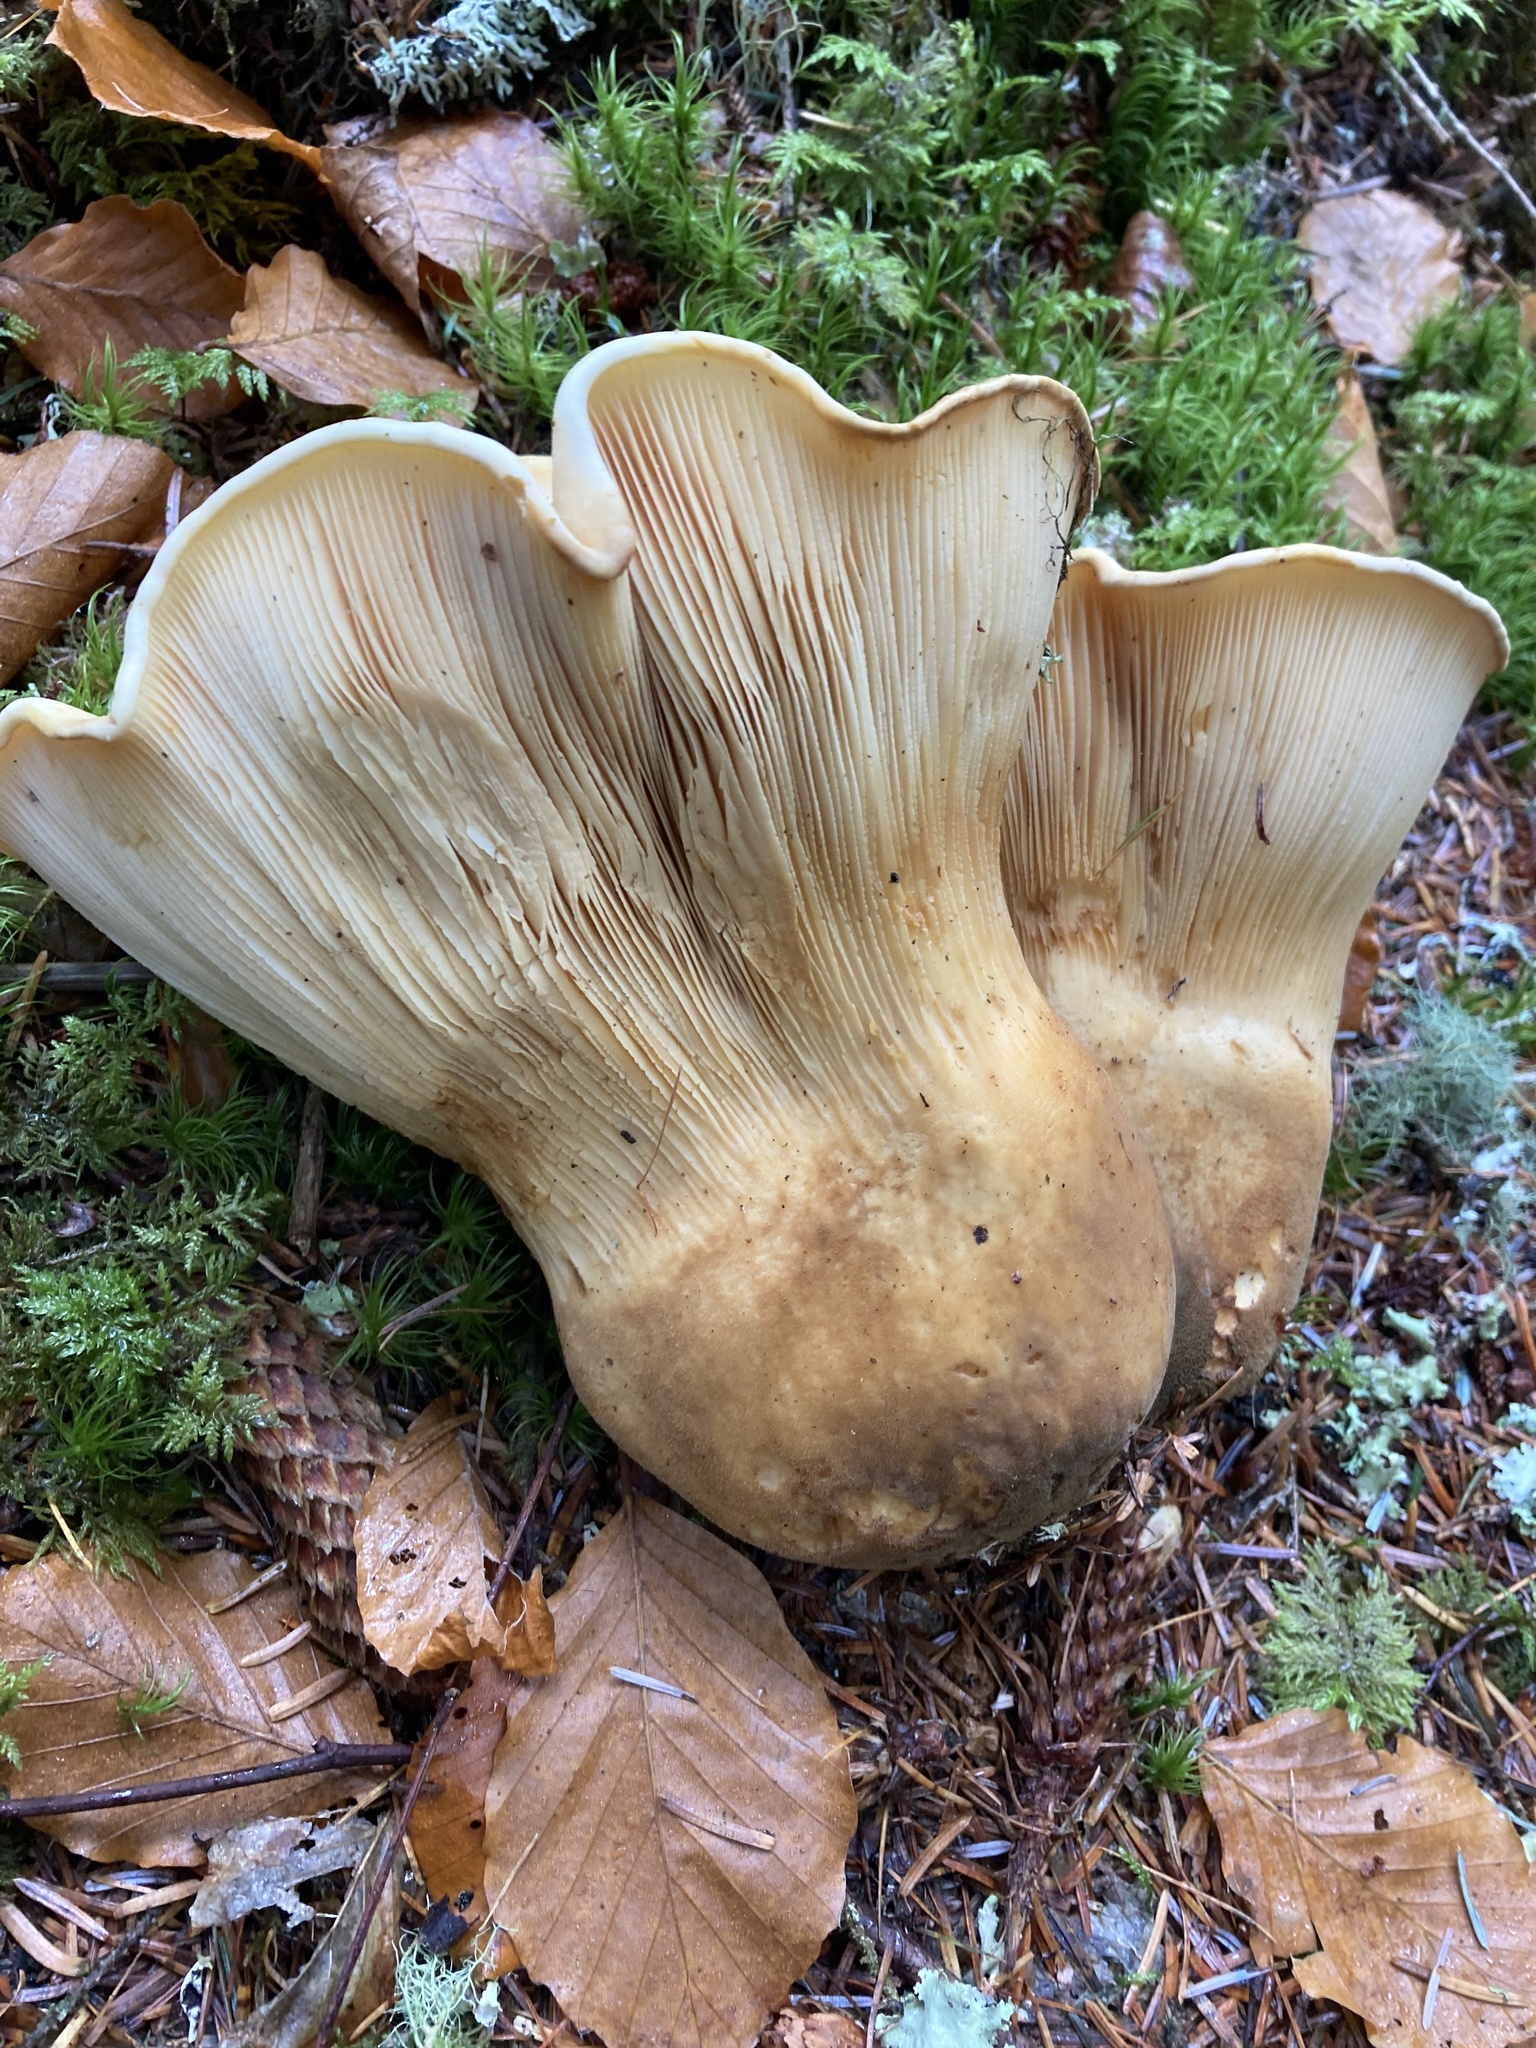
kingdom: Fungi
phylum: Basidiomycota
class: Agaricomycetes
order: Boletales
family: Tapinellaceae
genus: Tapinella
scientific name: Tapinella atrotomentosa
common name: Velvet rollrim
